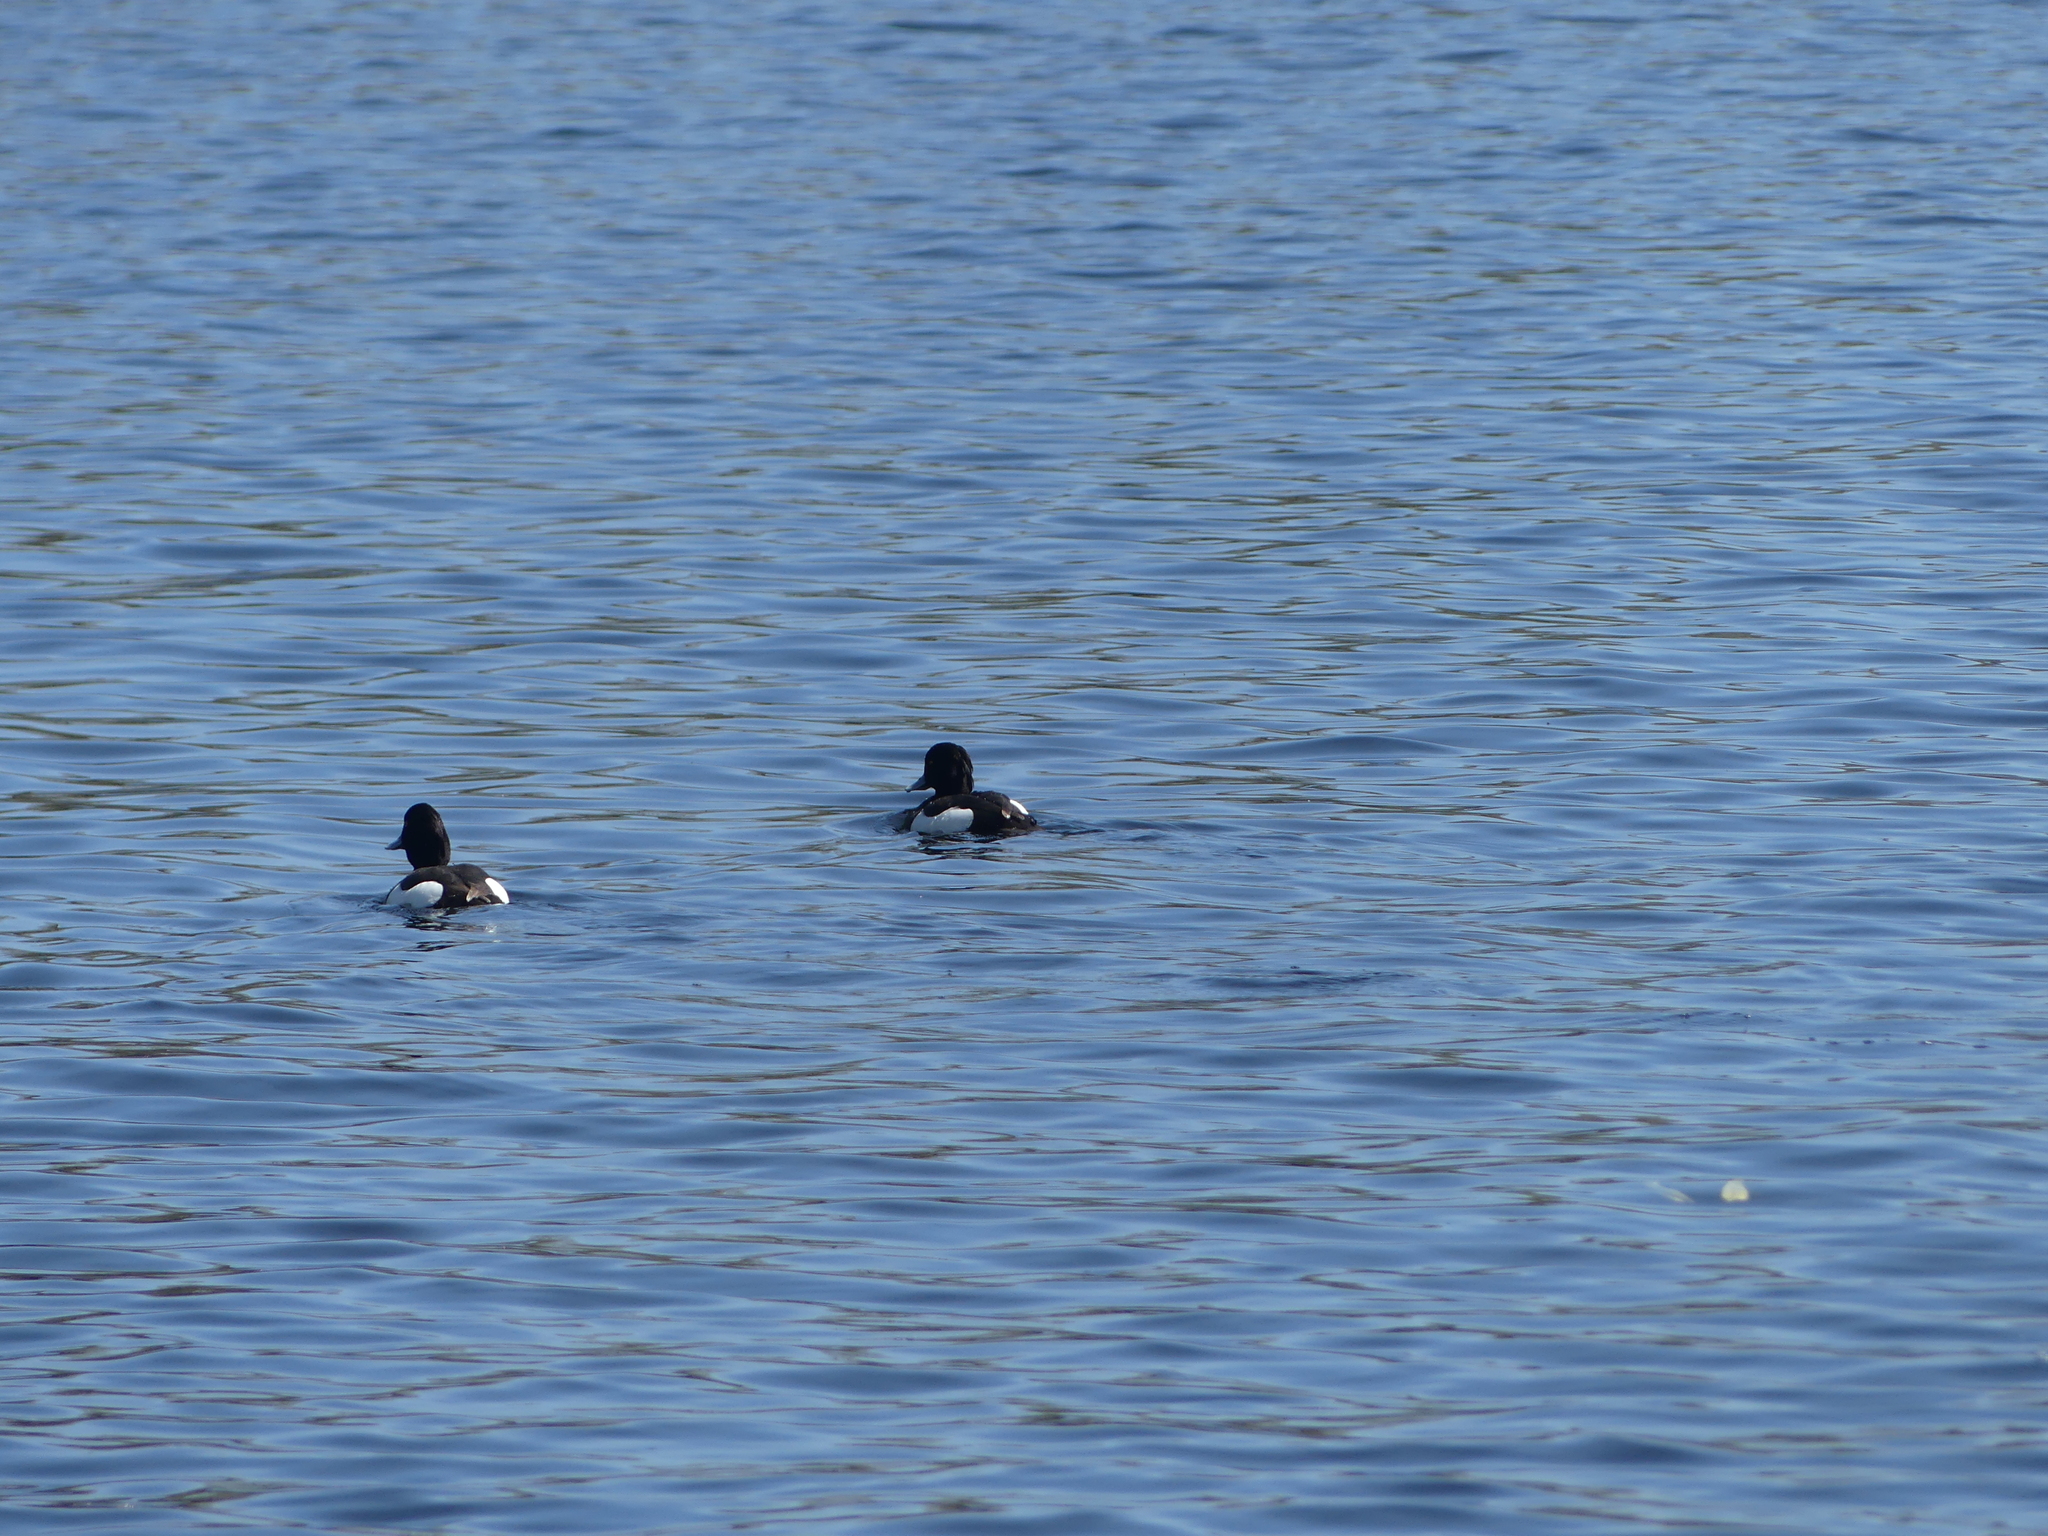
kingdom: Animalia
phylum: Chordata
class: Aves
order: Anseriformes
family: Anatidae
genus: Aythya
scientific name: Aythya fuligula
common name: Tufted duck
